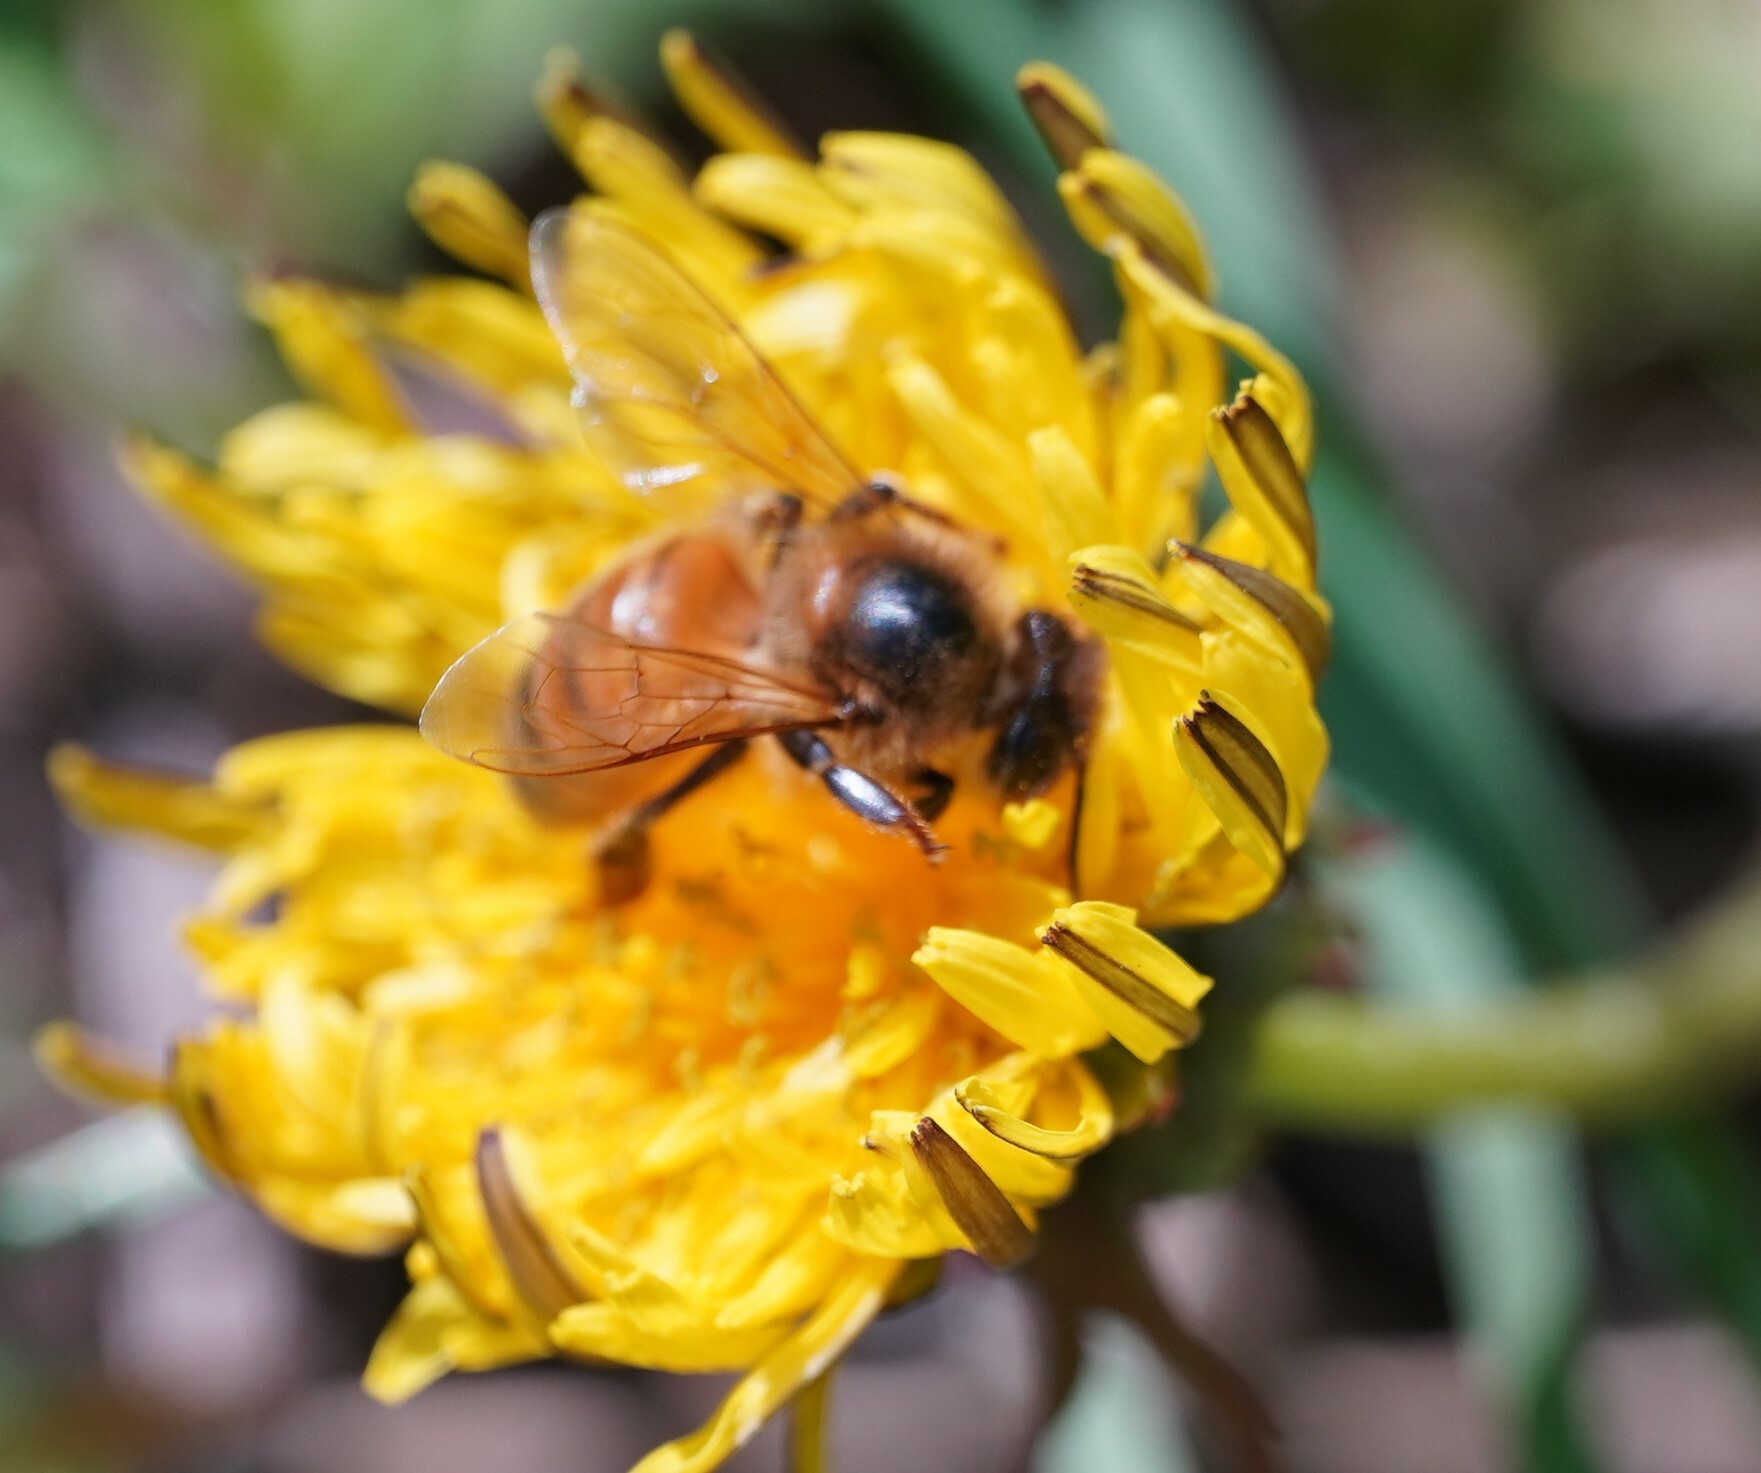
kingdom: Animalia
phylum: Arthropoda
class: Insecta
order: Hymenoptera
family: Apidae
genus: Apis
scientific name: Apis mellifera
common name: Honey bee
